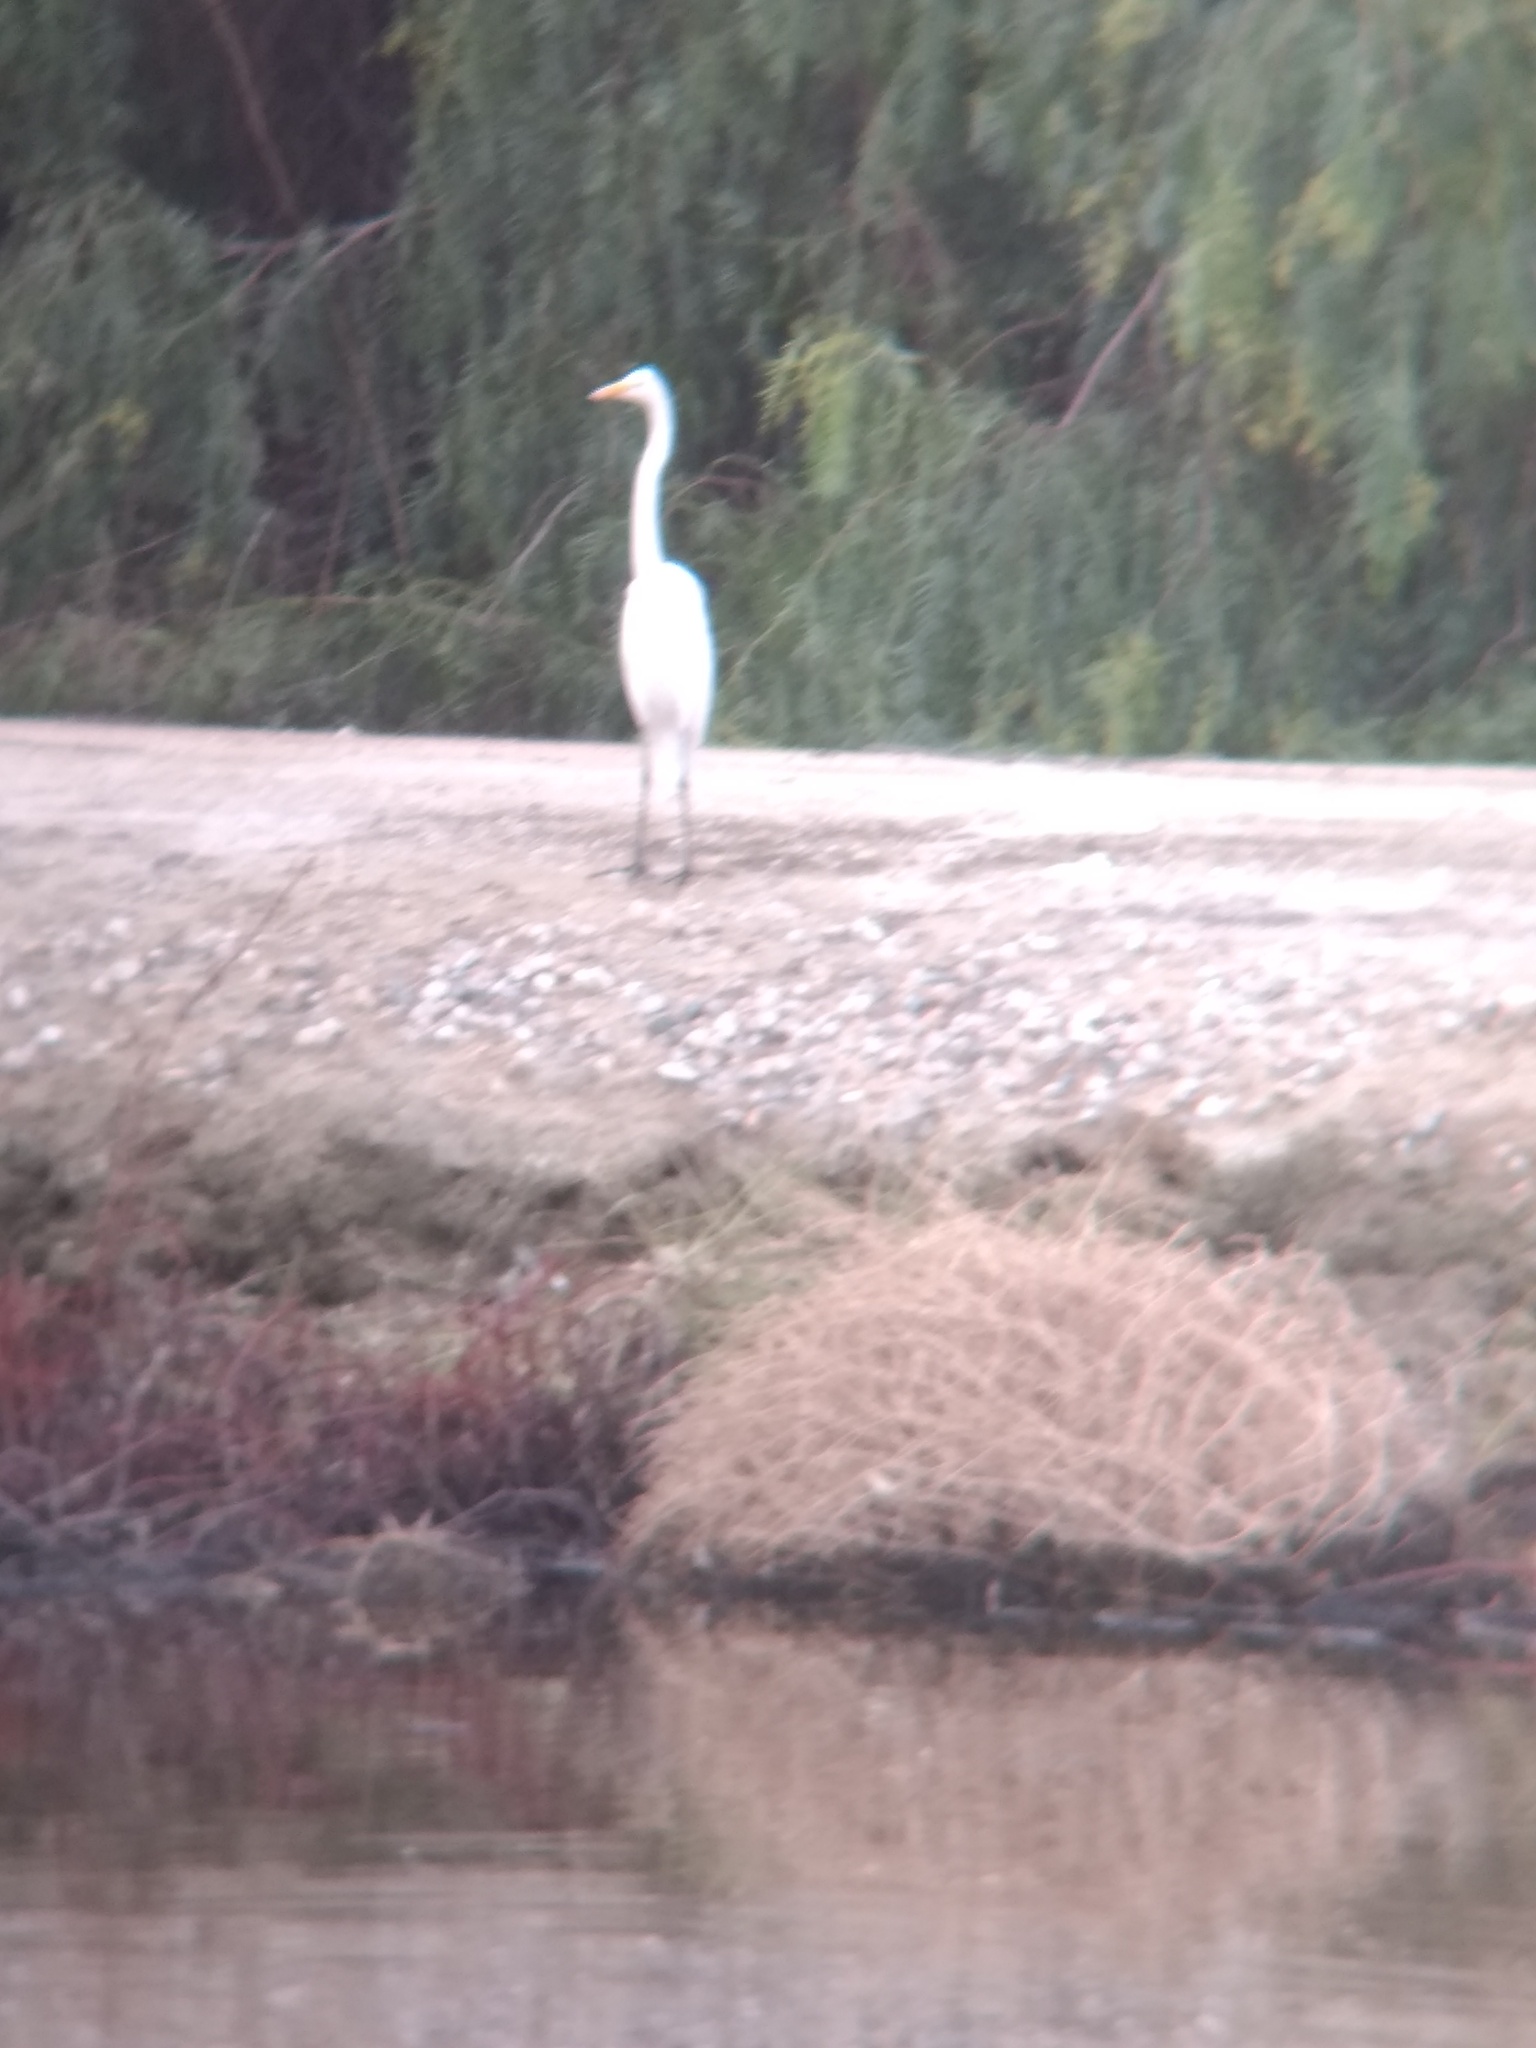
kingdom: Animalia
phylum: Chordata
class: Aves
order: Pelecaniformes
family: Ardeidae
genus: Ardea
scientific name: Ardea alba
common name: Great egret
